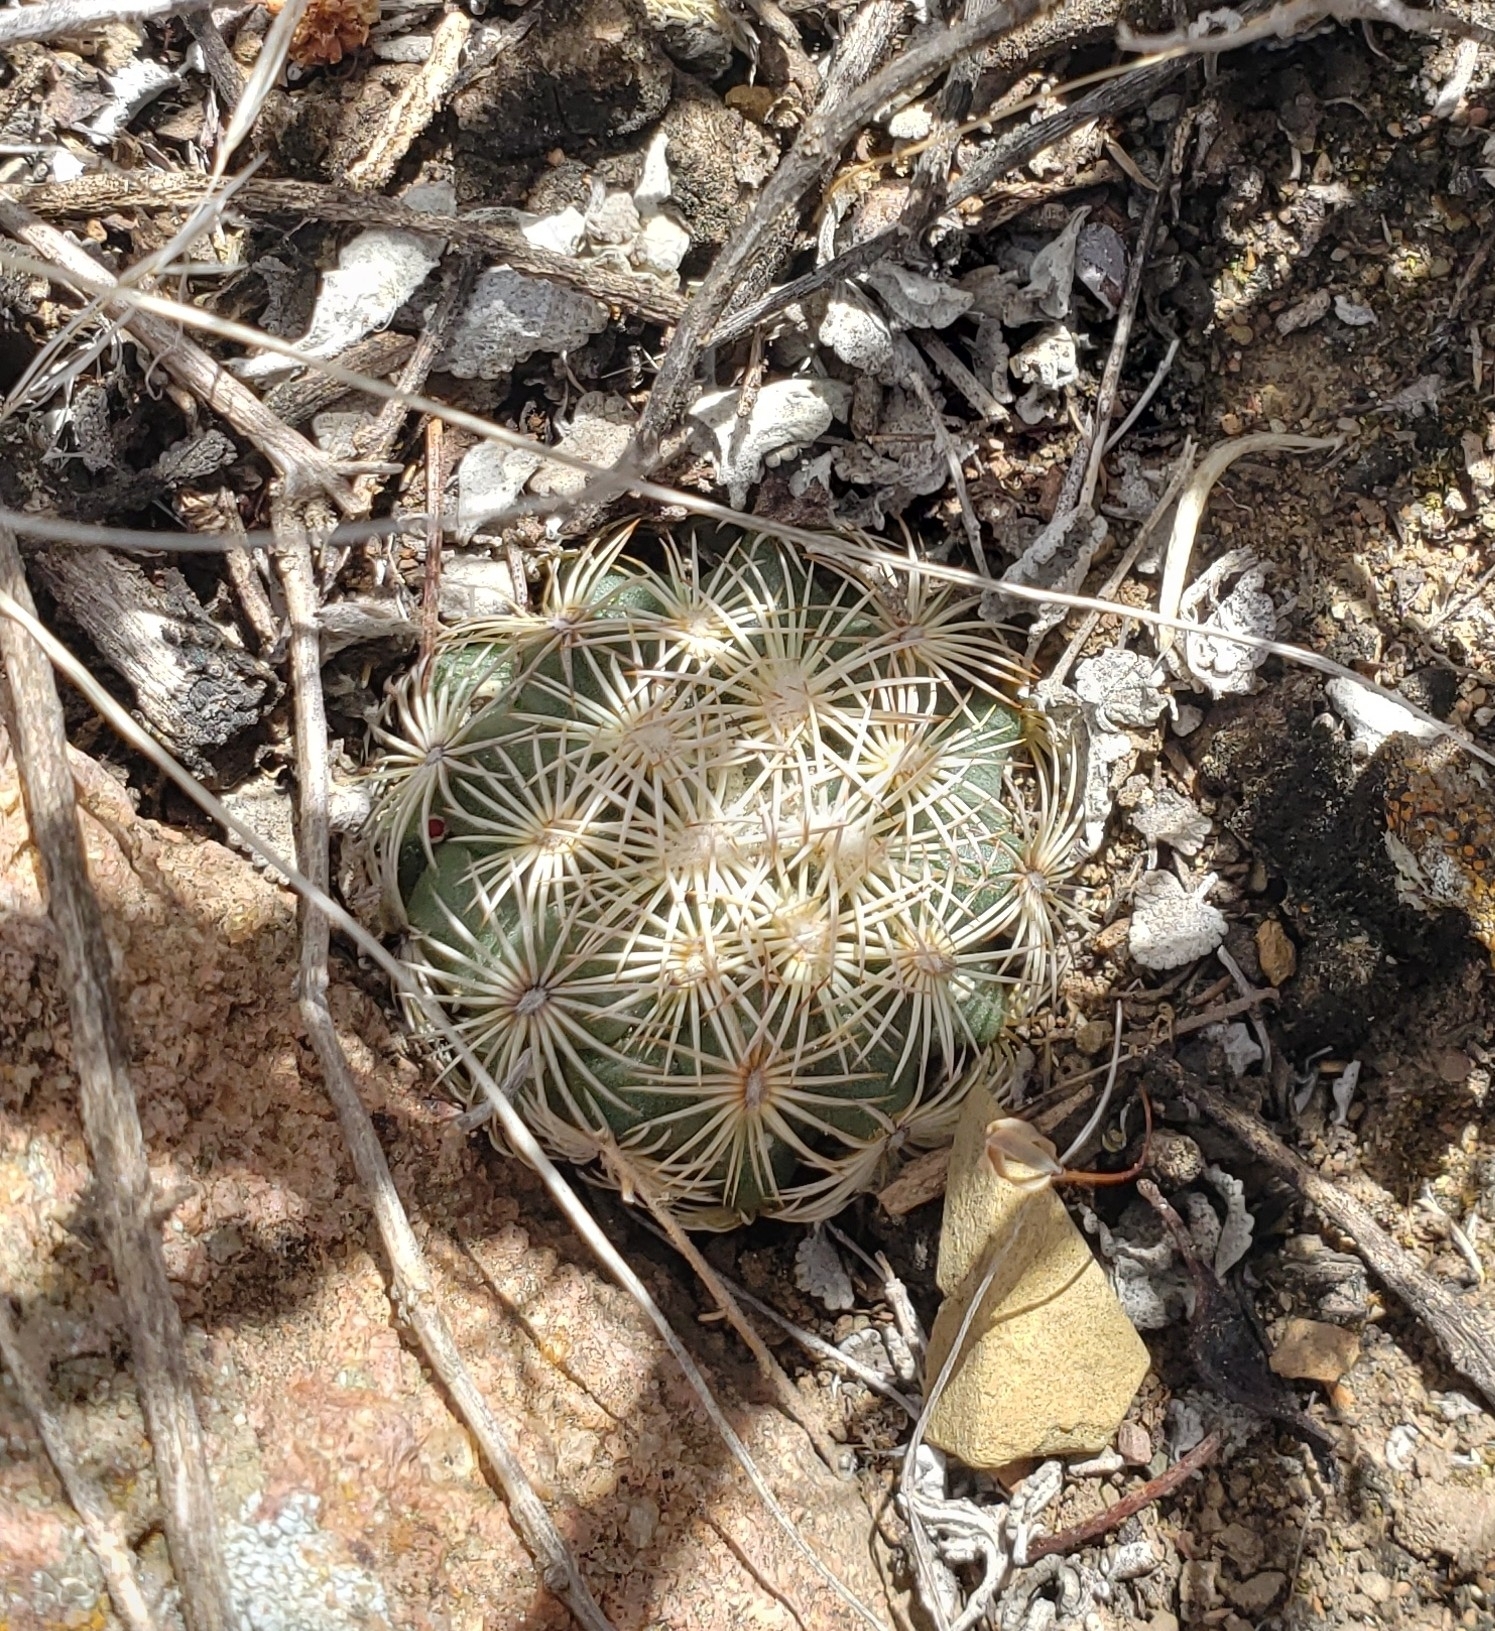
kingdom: Plantae
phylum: Tracheophyta
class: Magnoliopsida
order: Caryophyllales
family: Cactaceae
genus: Coryphantha
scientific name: Coryphantha cornifera
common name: Rhinoceros cactus
